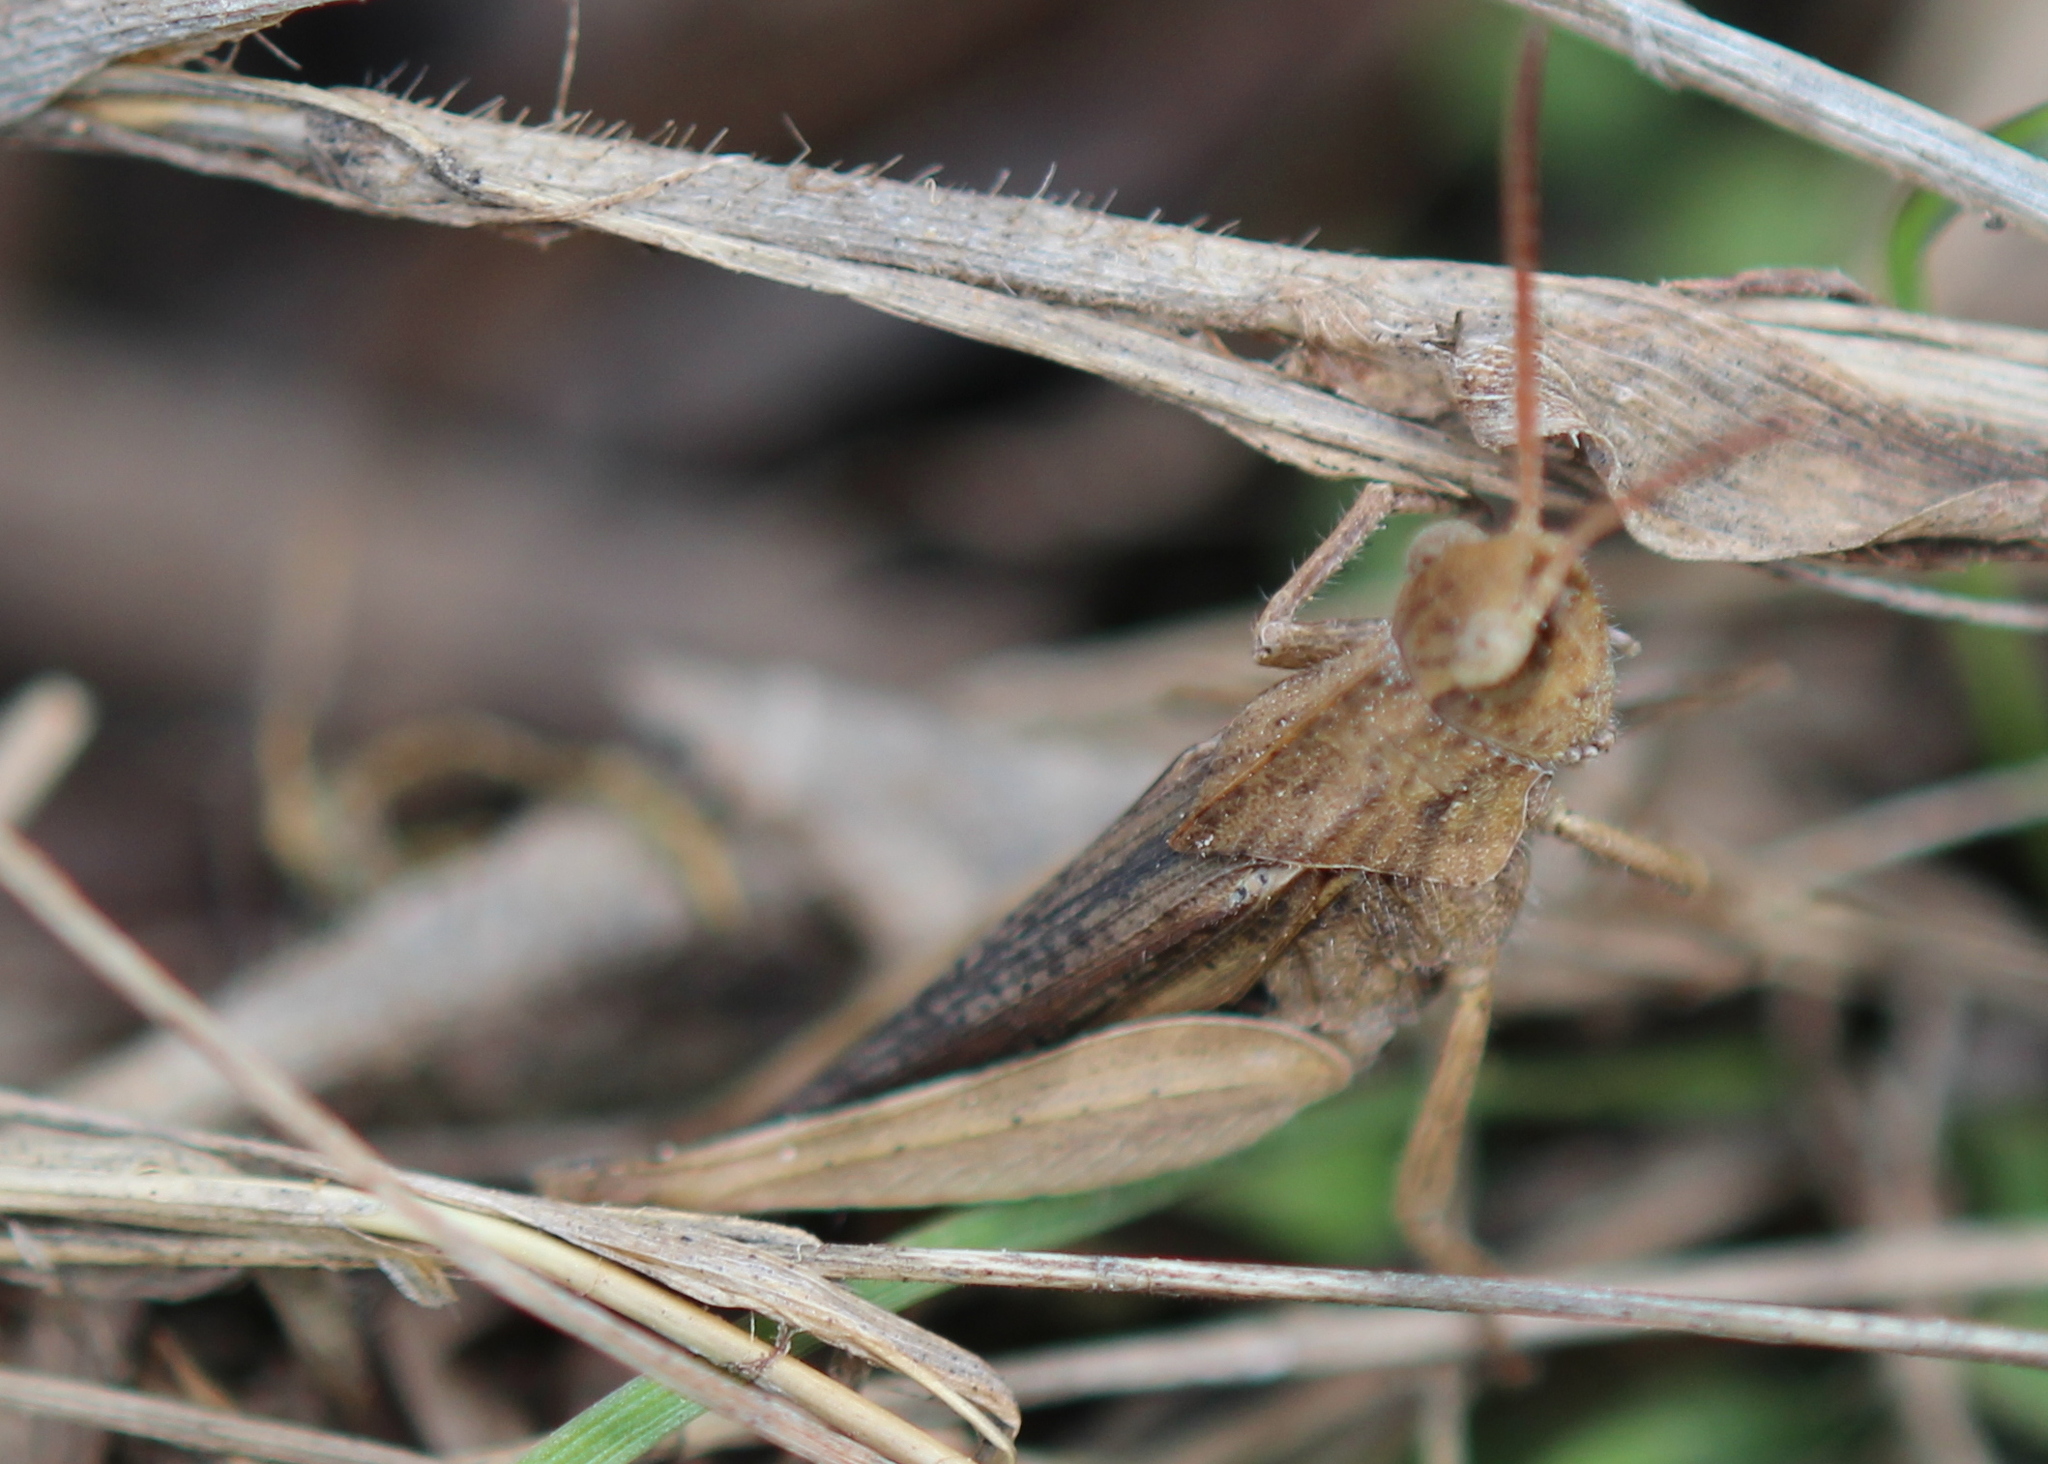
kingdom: Animalia
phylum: Arthropoda
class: Insecta
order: Orthoptera
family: Acrididae
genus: Chortophaga
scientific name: Chortophaga viridifasciata
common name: Green-striped grasshopper
